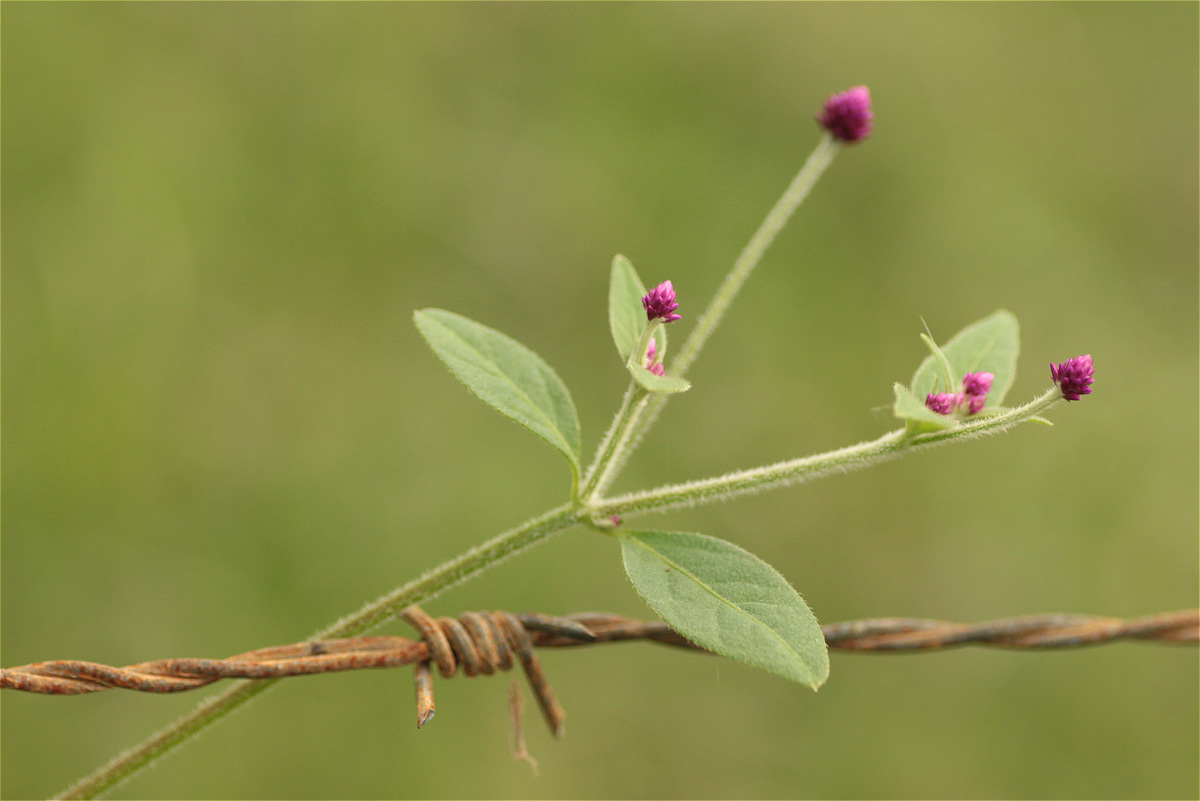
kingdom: Plantae
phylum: Tracheophyta
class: Magnoliopsida
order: Caryophyllales
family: Amaranthaceae
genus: Alternanthera
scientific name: Alternanthera porrigens
